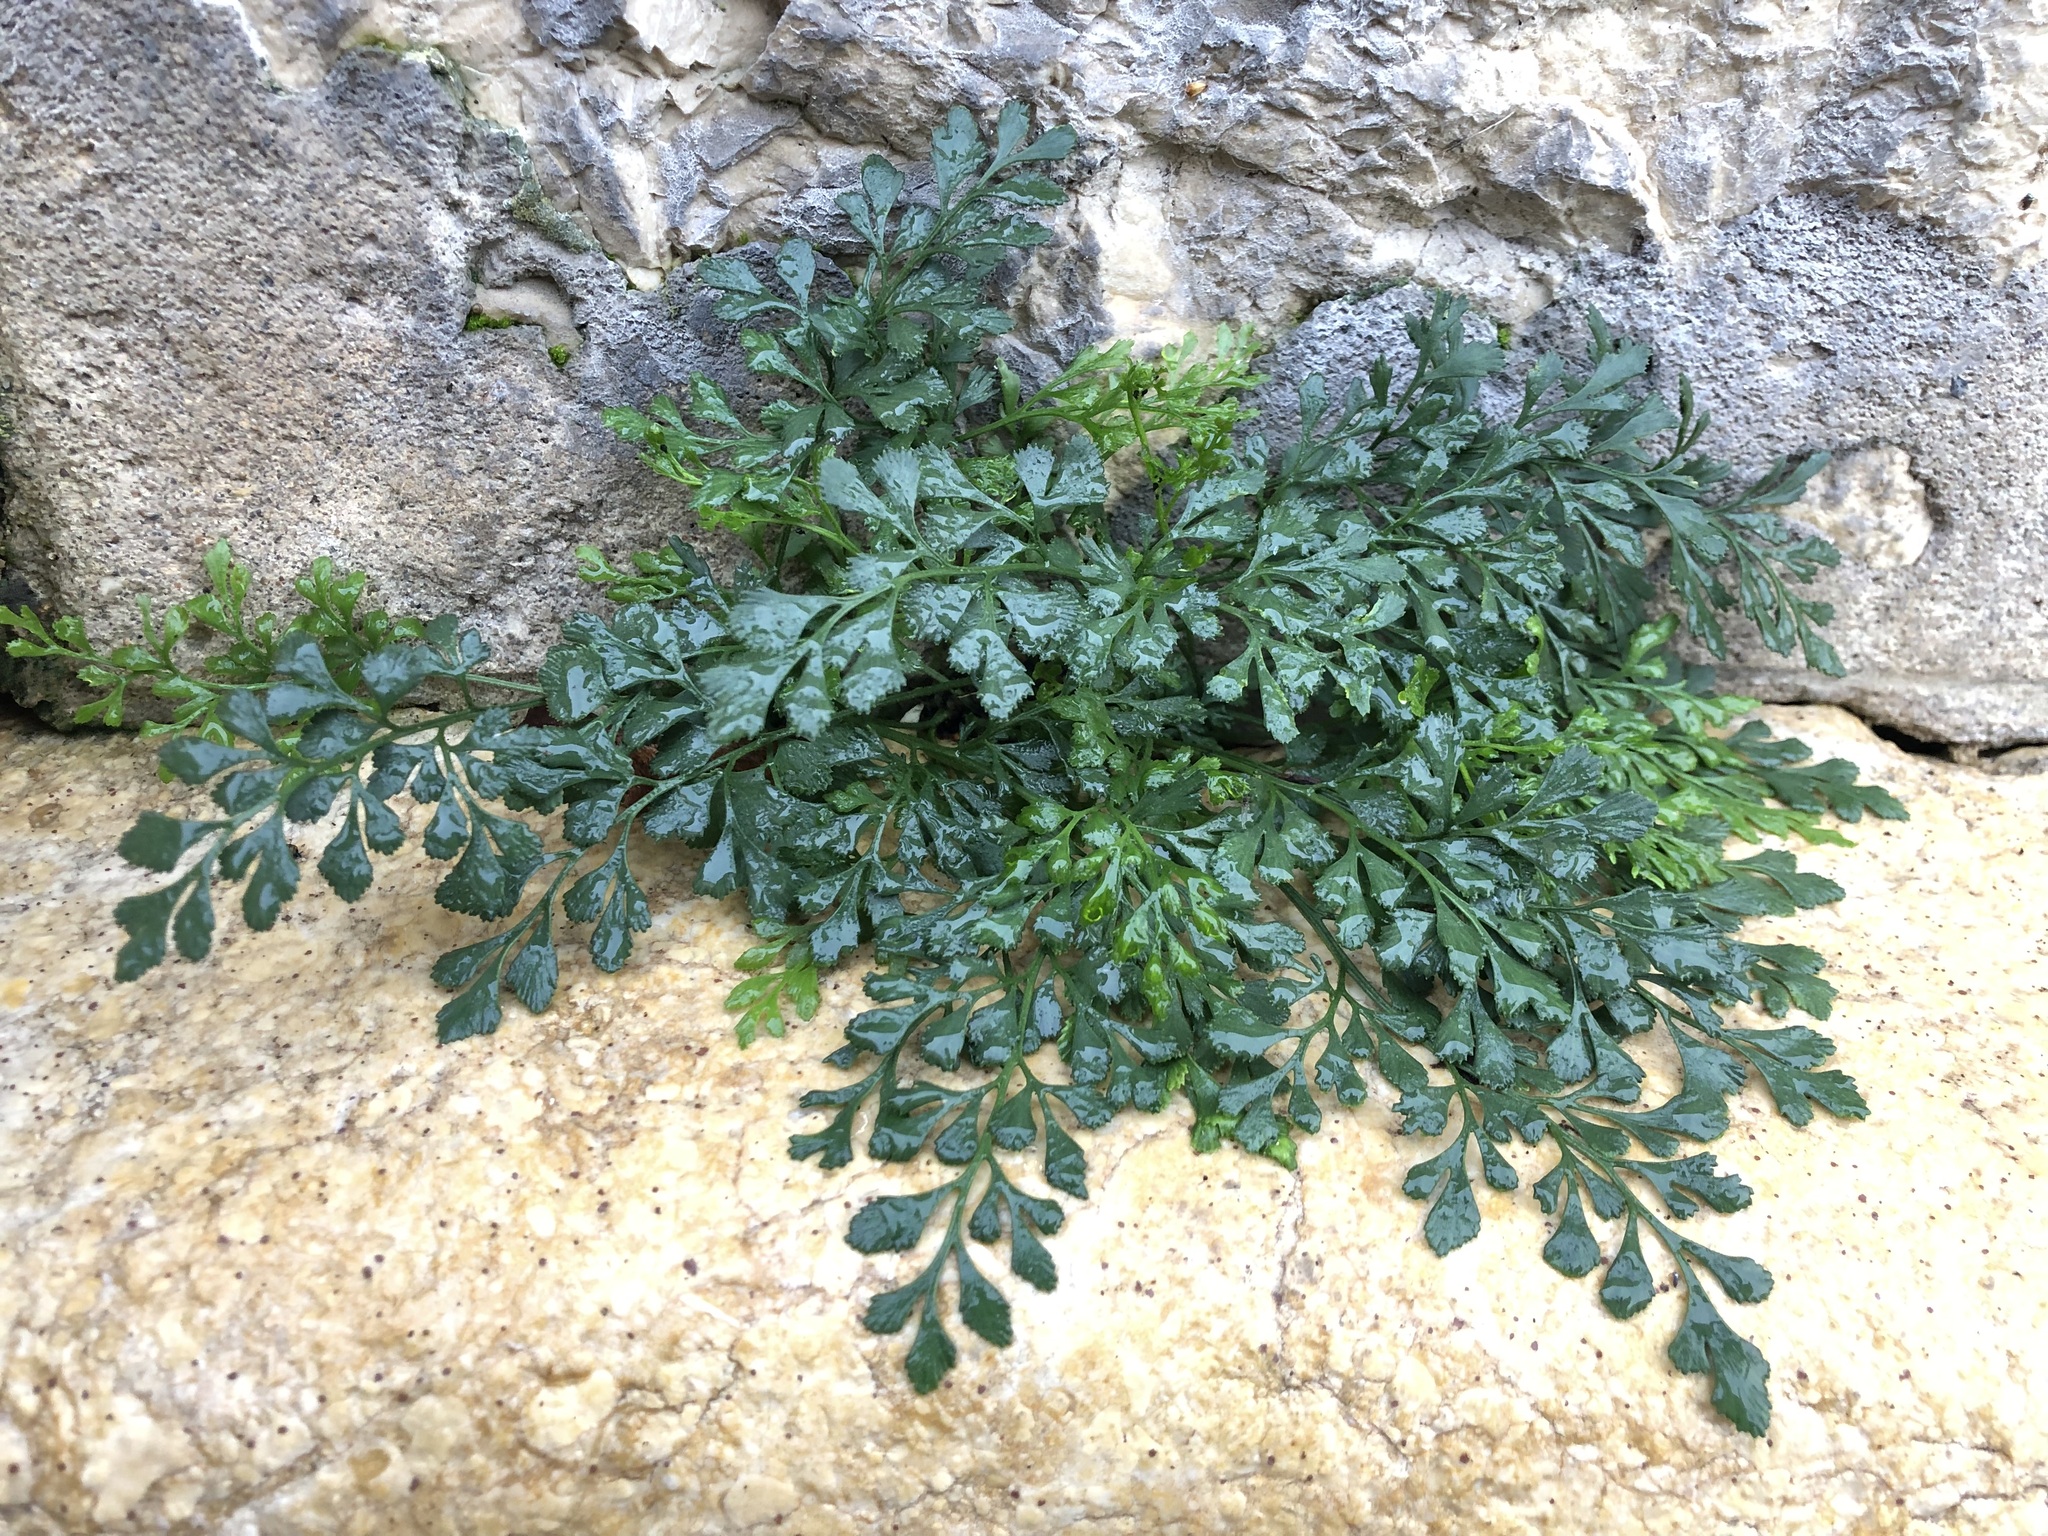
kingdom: Plantae
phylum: Tracheophyta
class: Polypodiopsida
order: Polypodiales
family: Aspleniaceae
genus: Asplenium
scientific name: Asplenium ruta-muraria
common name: Wall-rue
